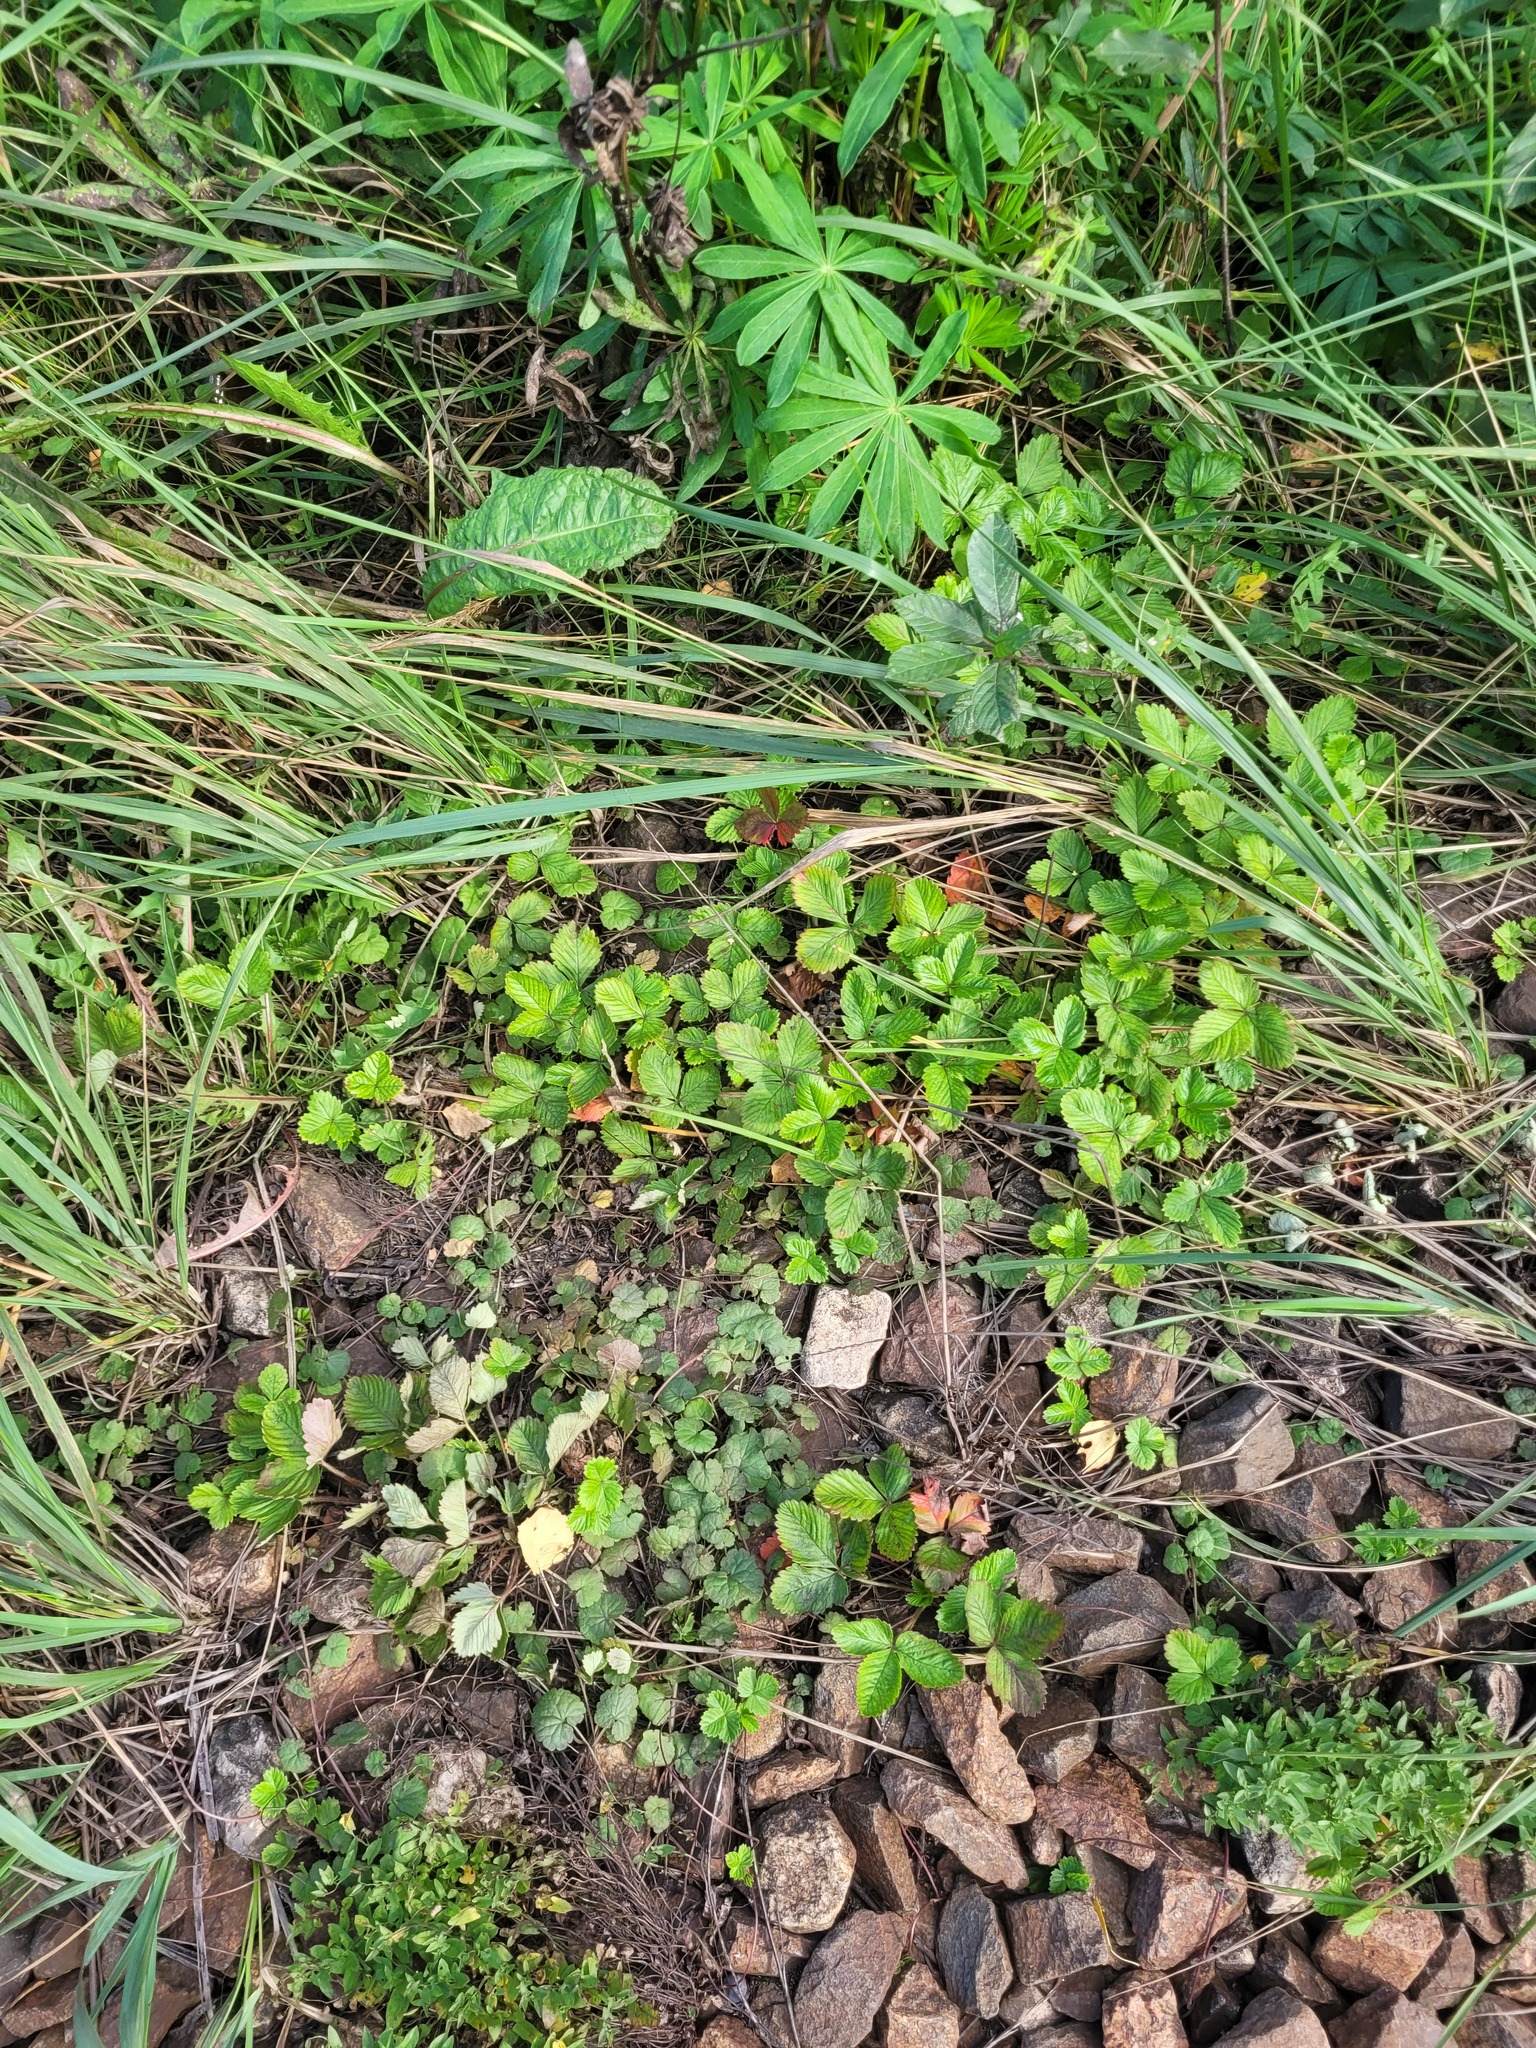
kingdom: Plantae
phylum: Tracheophyta
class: Magnoliopsida
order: Rosales
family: Rosaceae
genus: Fragaria
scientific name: Fragaria vesca
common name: Wild strawberry
